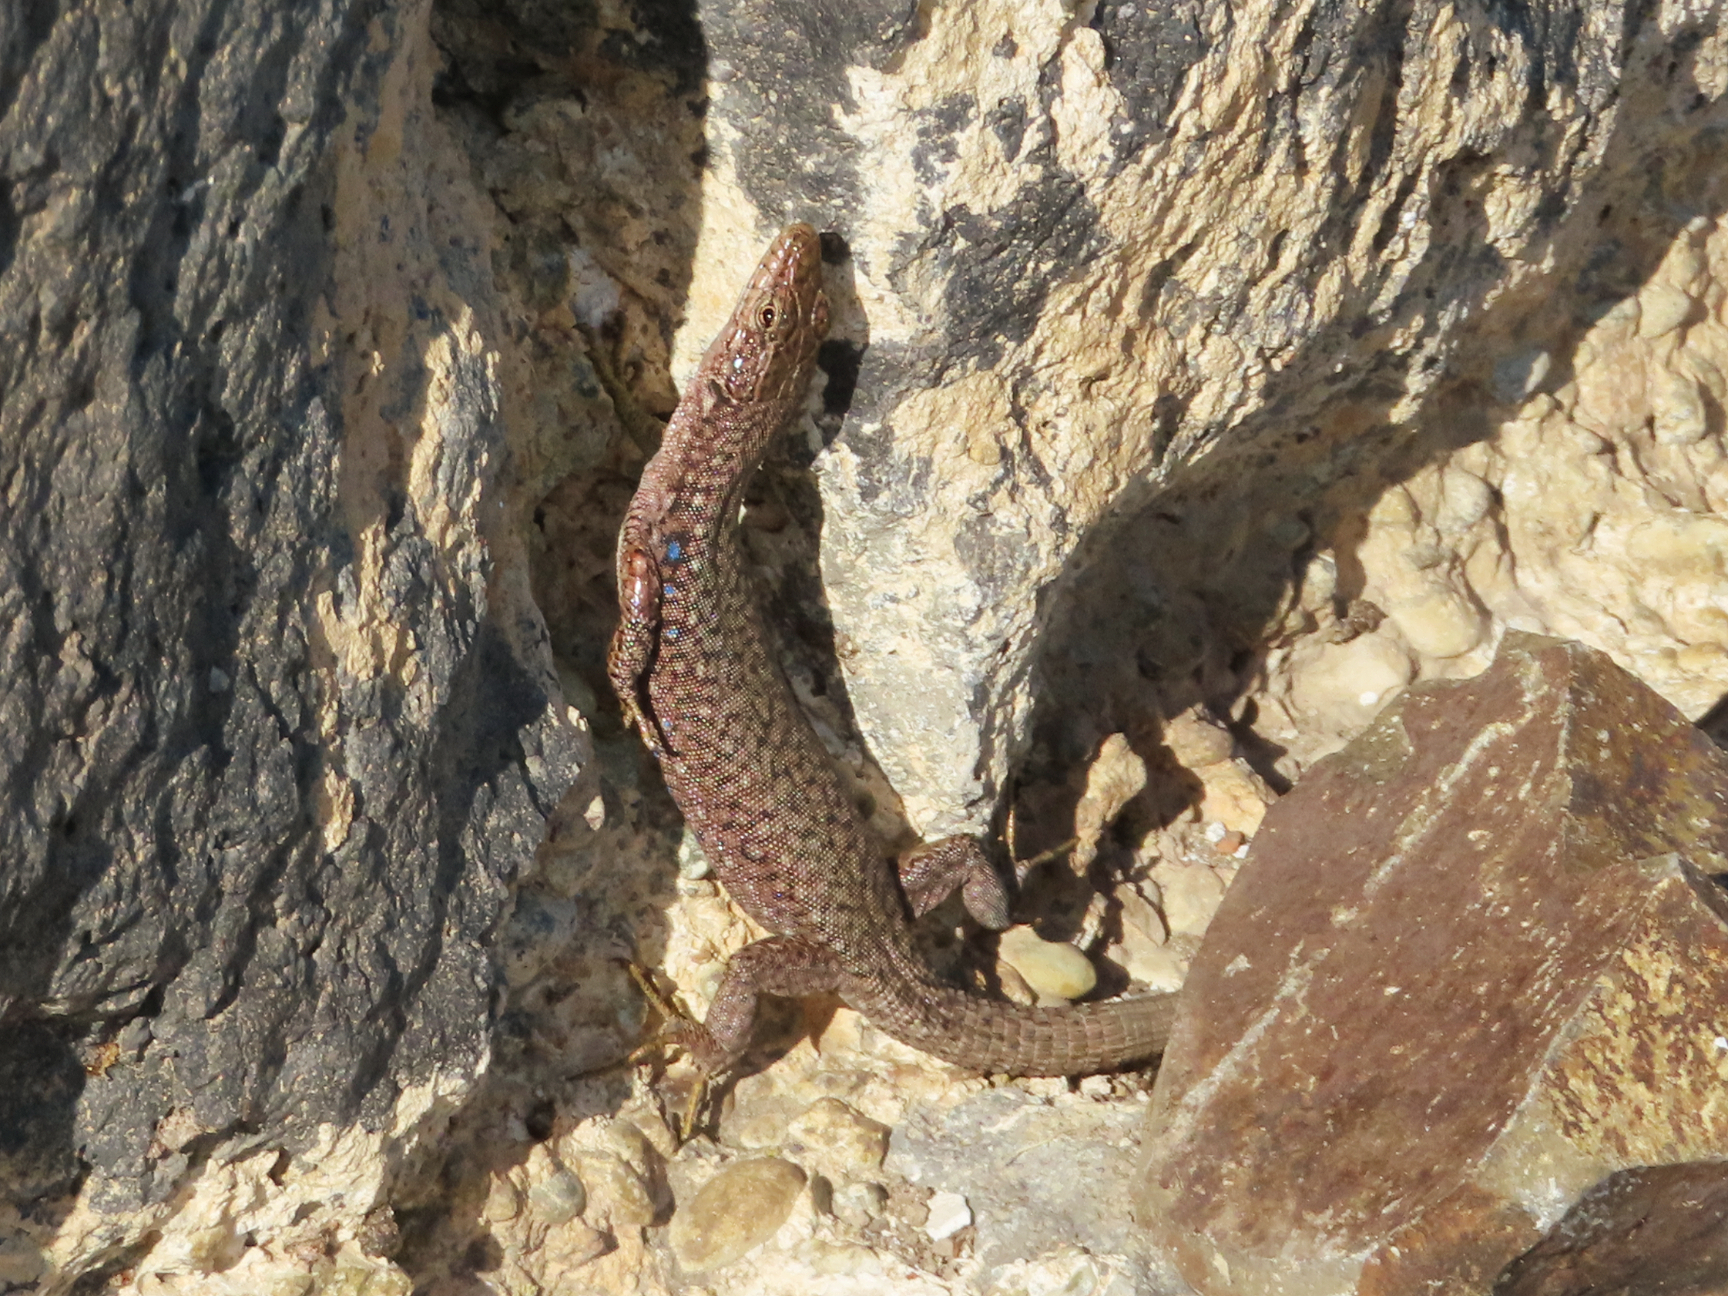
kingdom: Animalia
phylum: Chordata
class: Squamata
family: Lacertidae
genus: Darevskia
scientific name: Darevskia unisexualis
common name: Unisexual lizard
